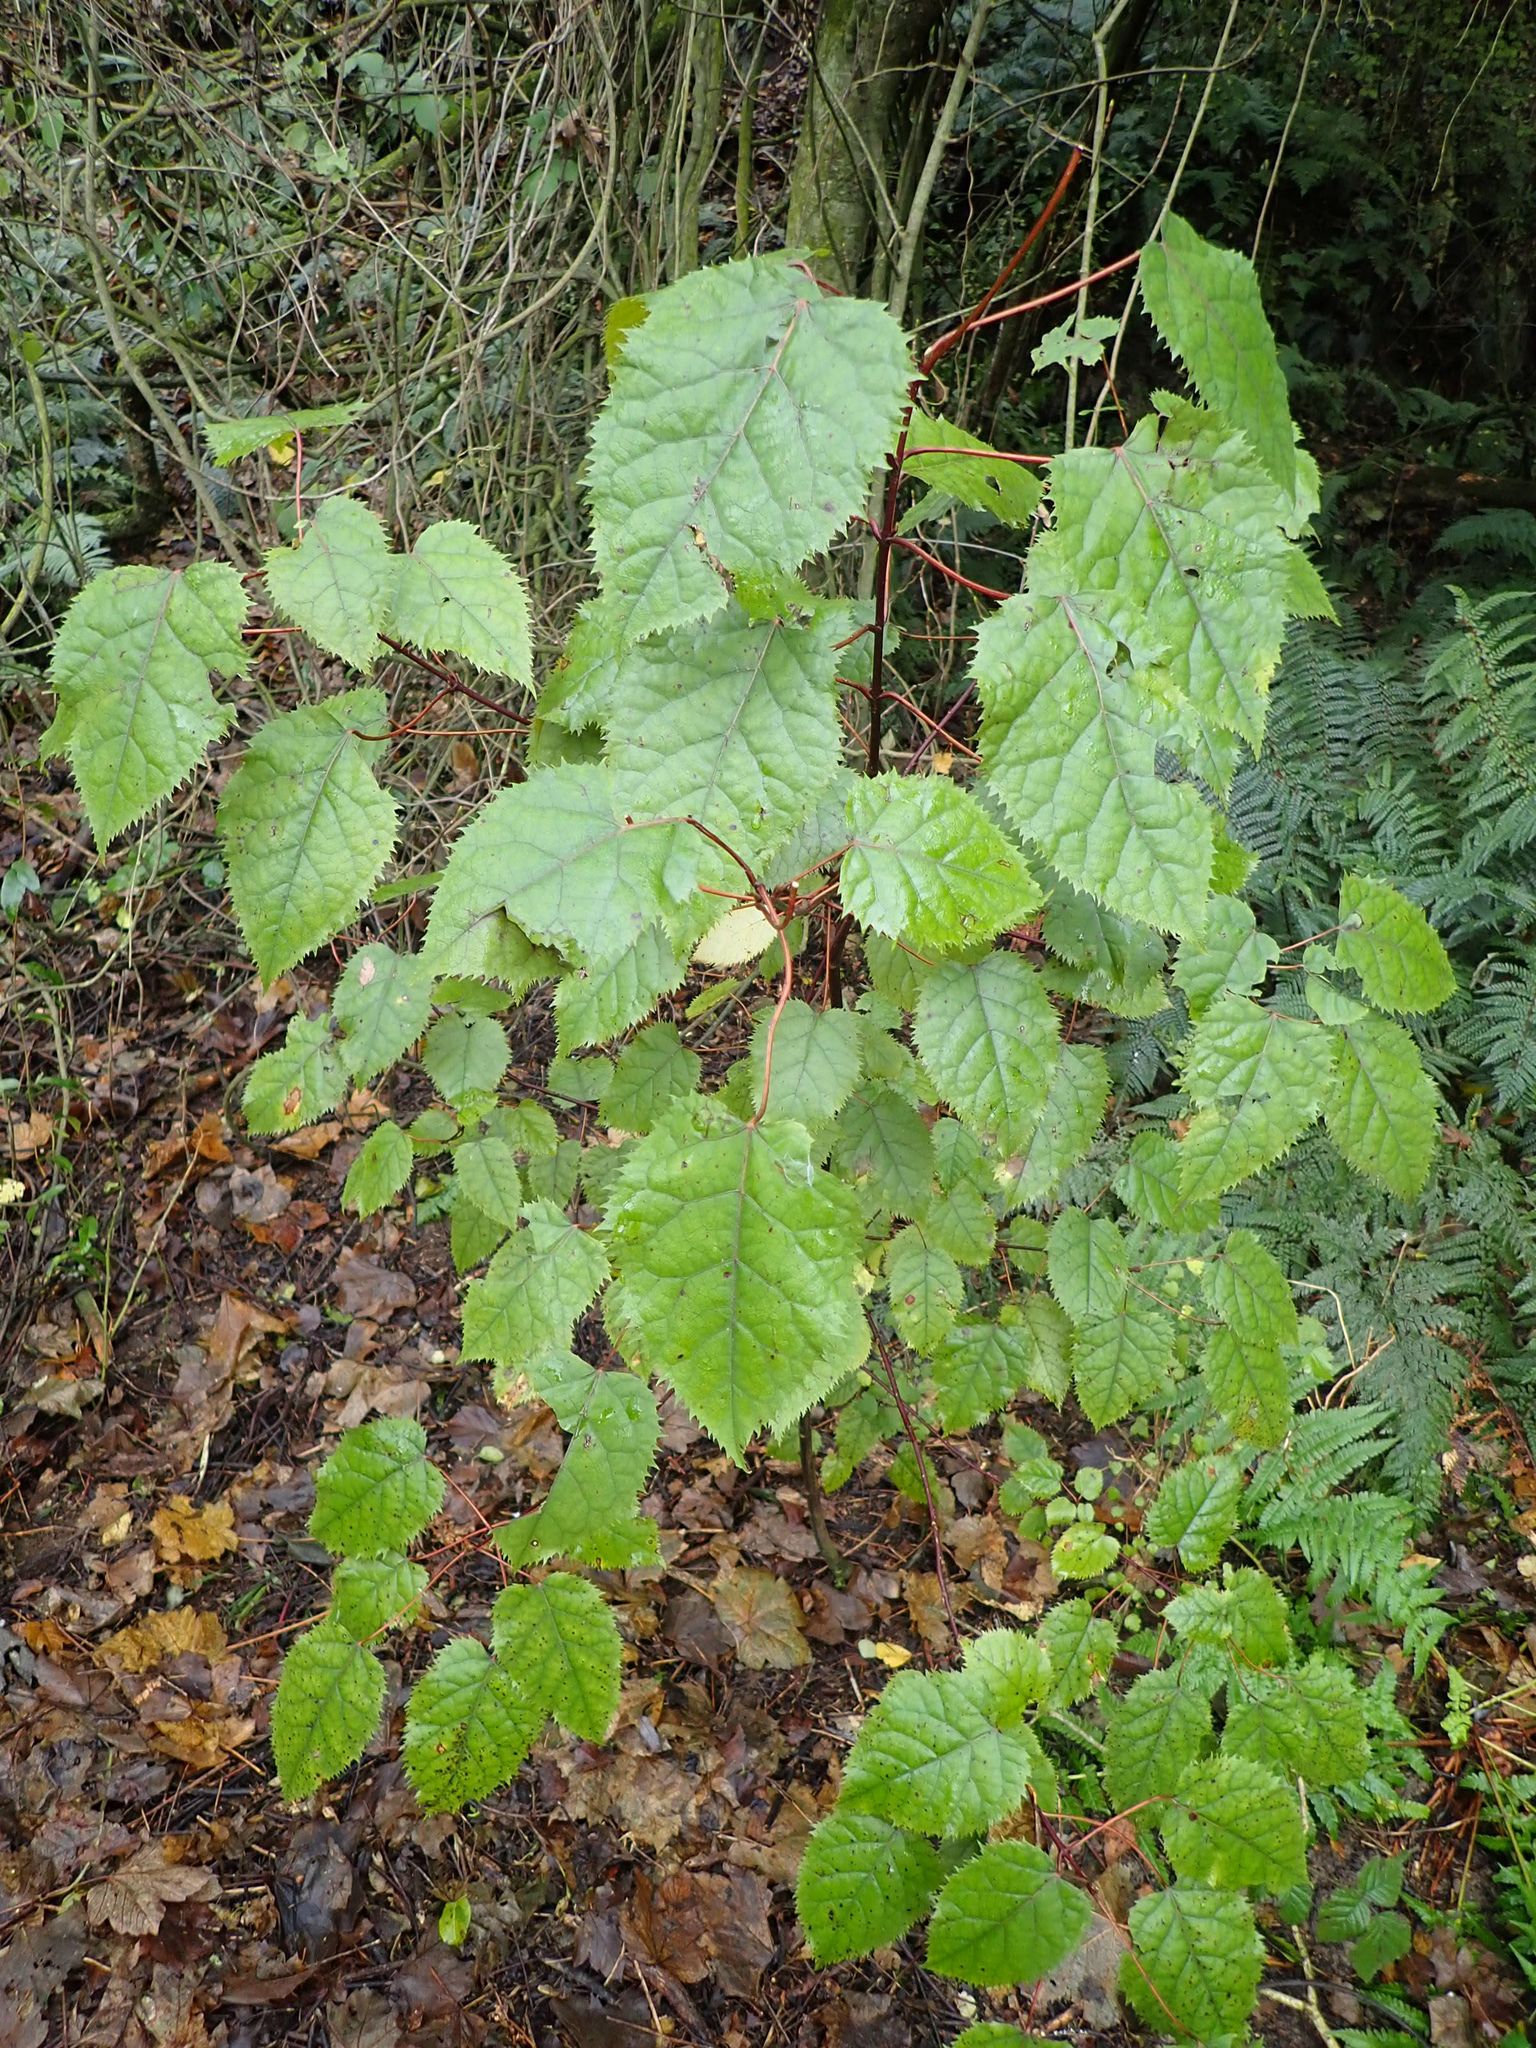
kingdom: Plantae
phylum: Tracheophyta
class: Magnoliopsida
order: Oxalidales
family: Elaeocarpaceae
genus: Aristotelia
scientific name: Aristotelia serrata
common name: New zealand wineberry
